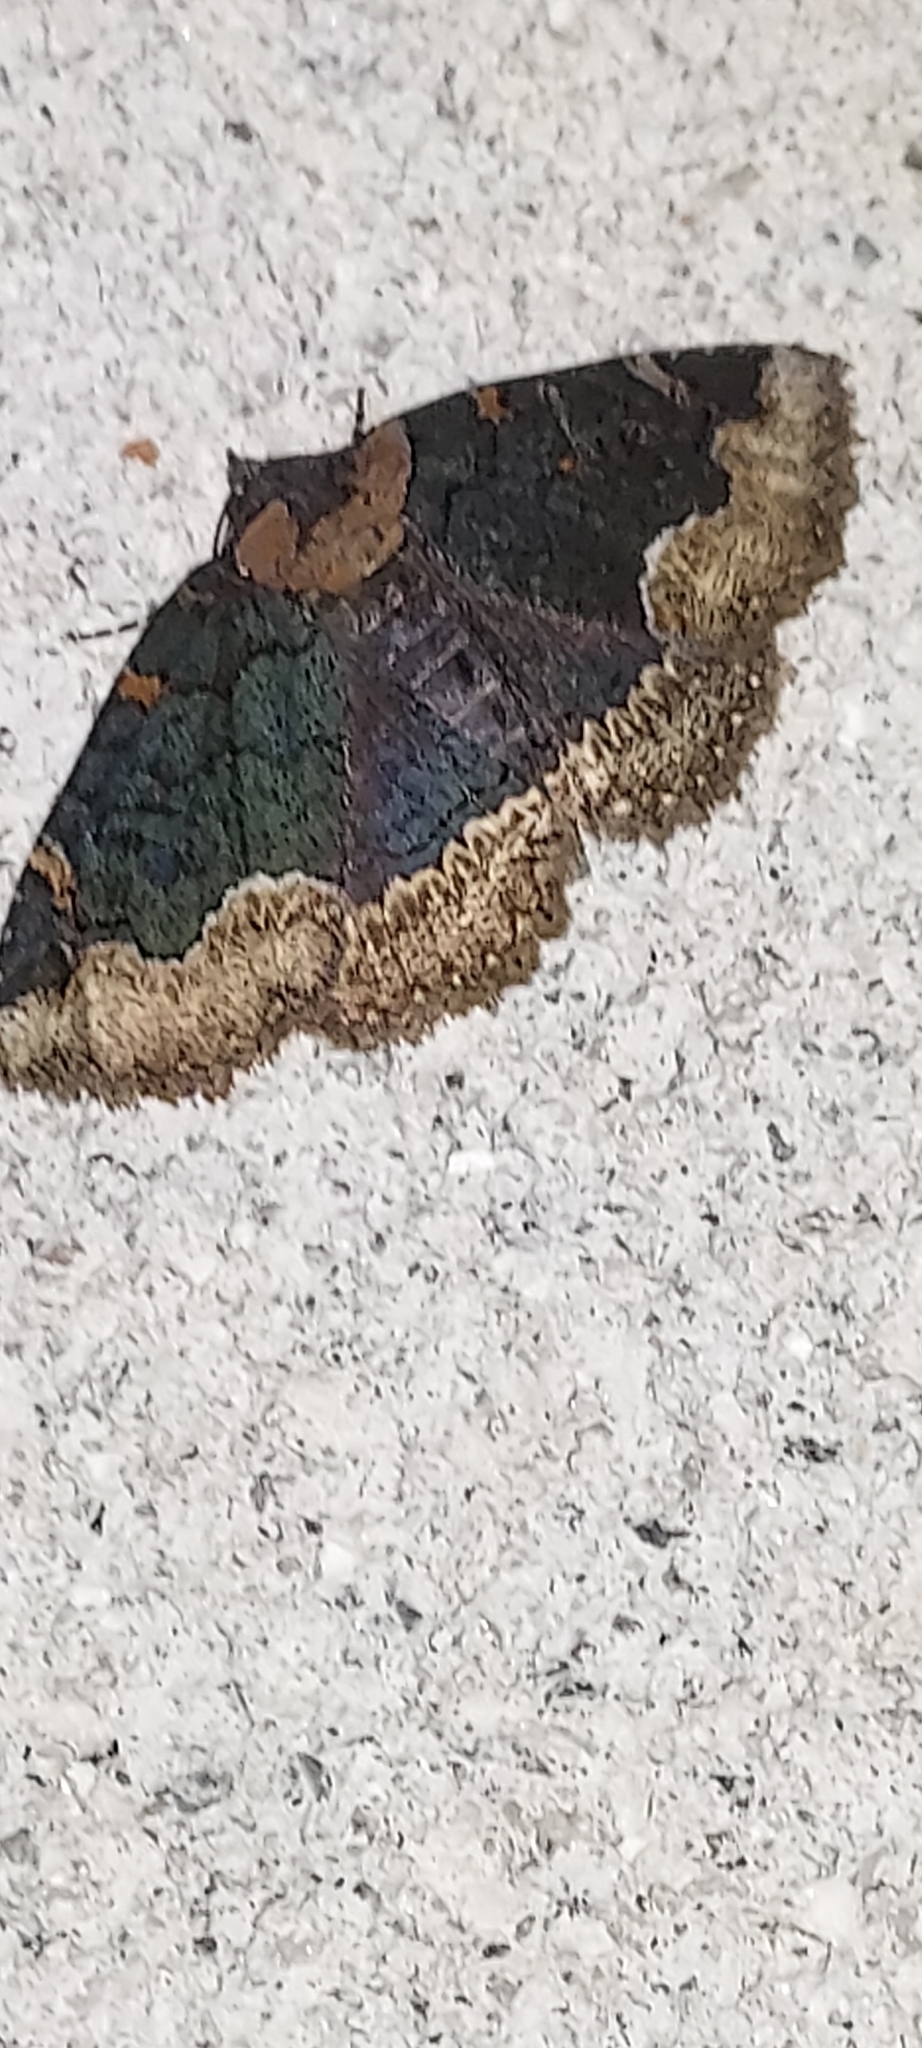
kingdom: Animalia
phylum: Arthropoda
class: Insecta
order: Lepidoptera
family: Erebidae
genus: Zale
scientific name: Zale horrida
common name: Horrid zale moth
